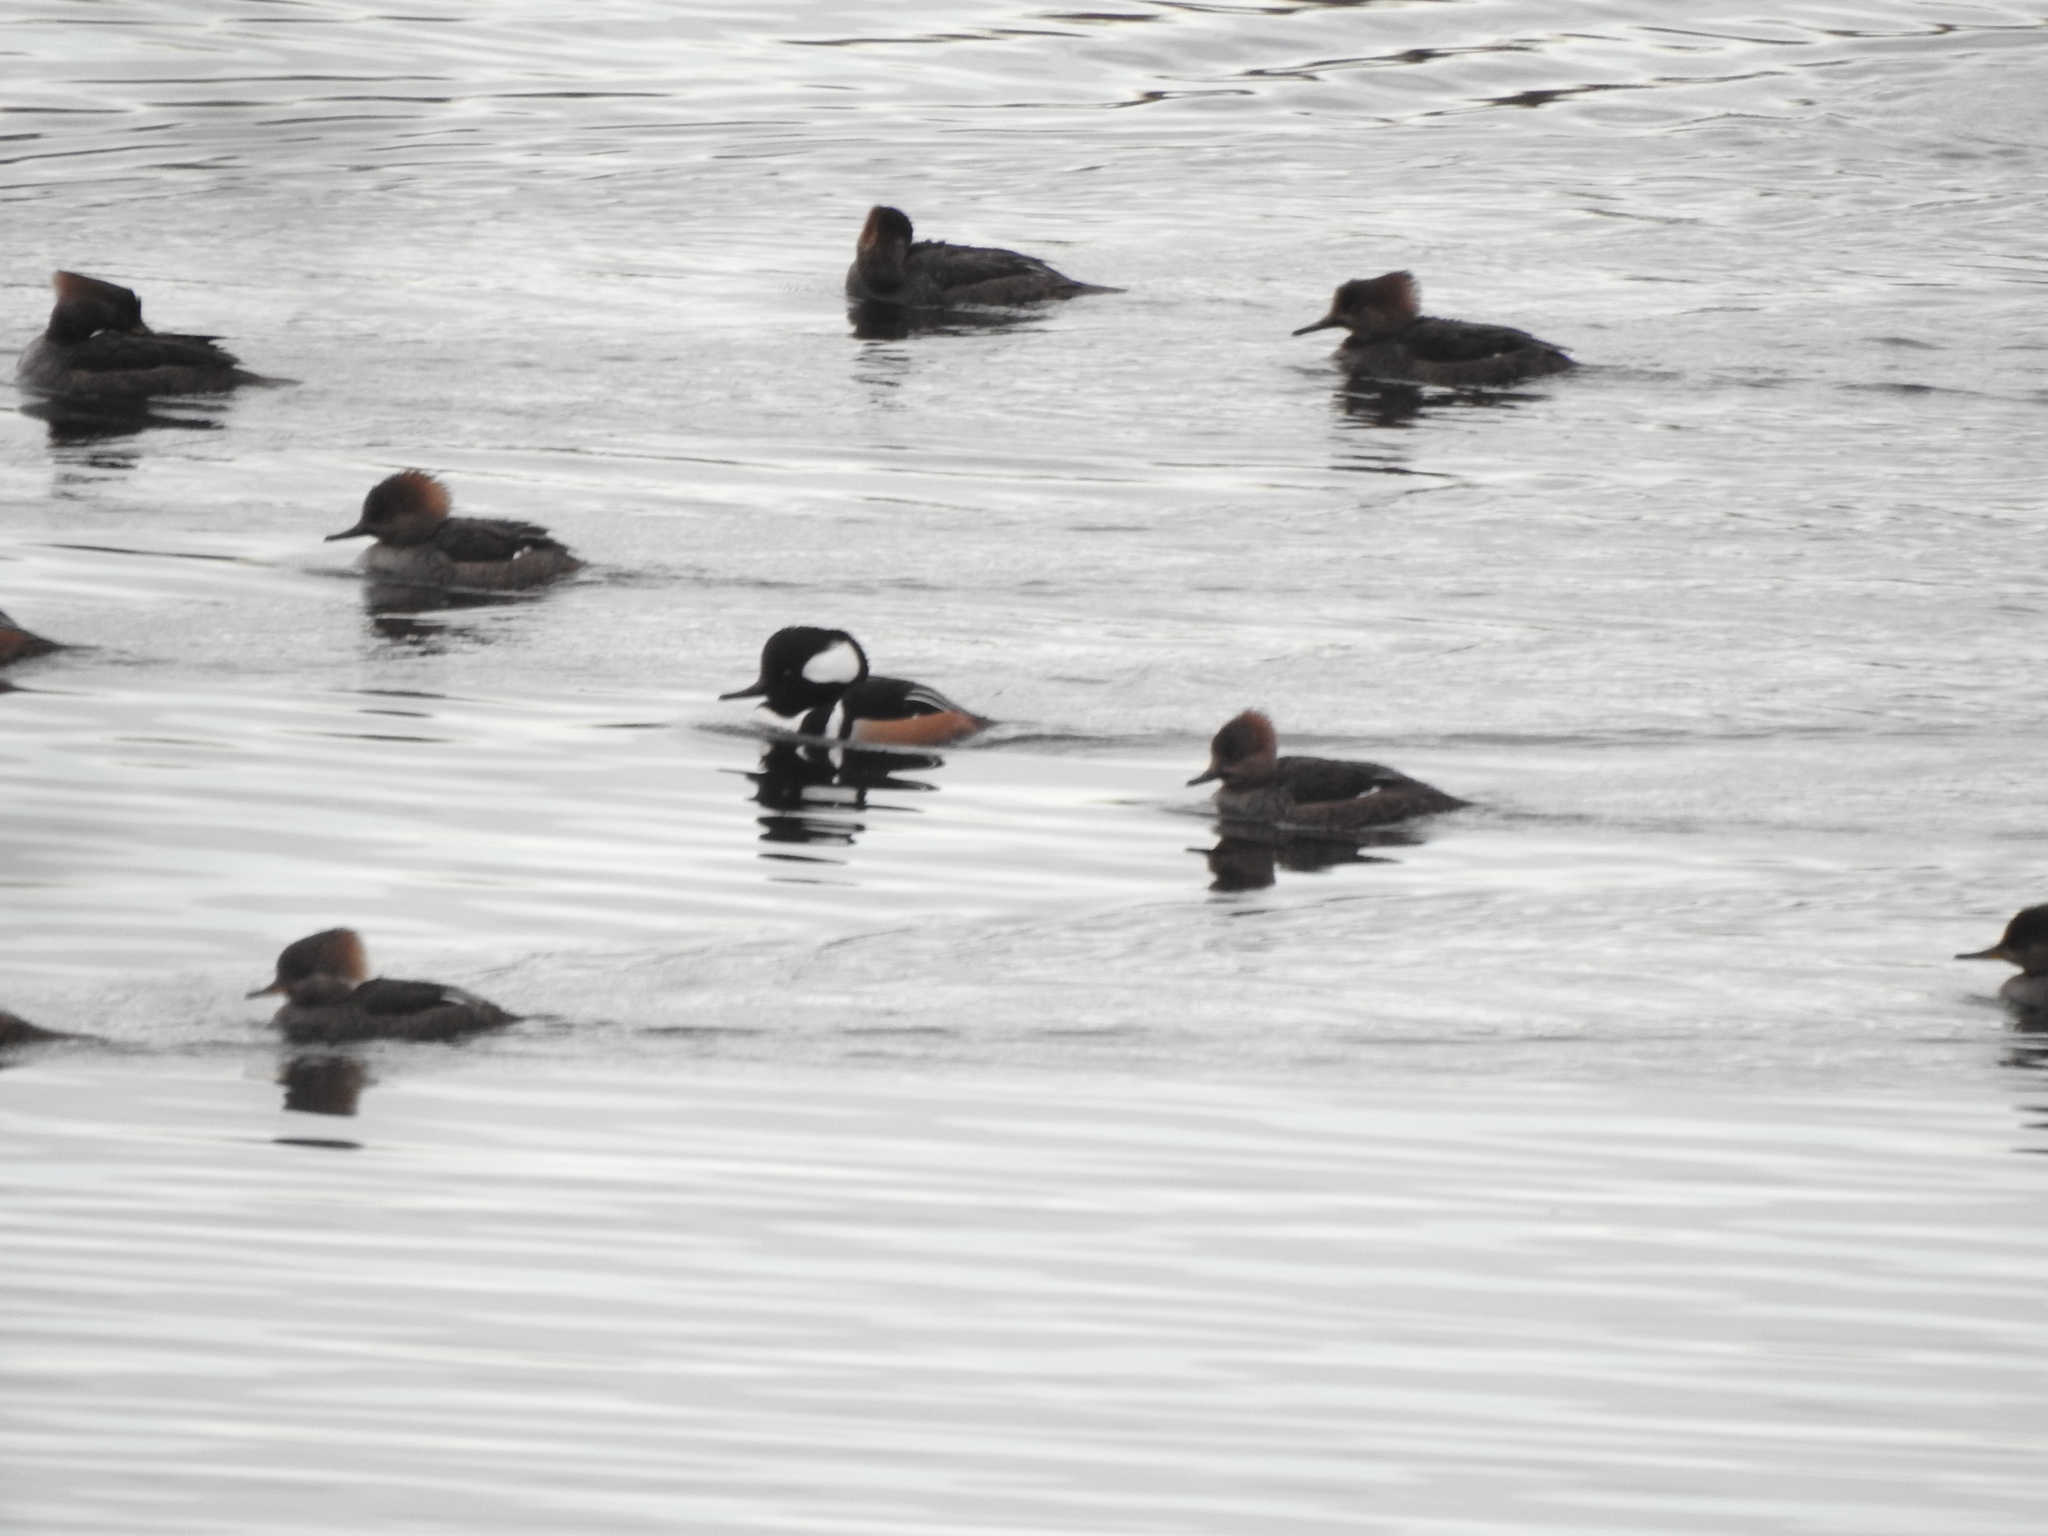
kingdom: Animalia
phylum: Chordata
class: Aves
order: Anseriformes
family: Anatidae
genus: Lophodytes
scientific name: Lophodytes cucullatus
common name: Hooded merganser
